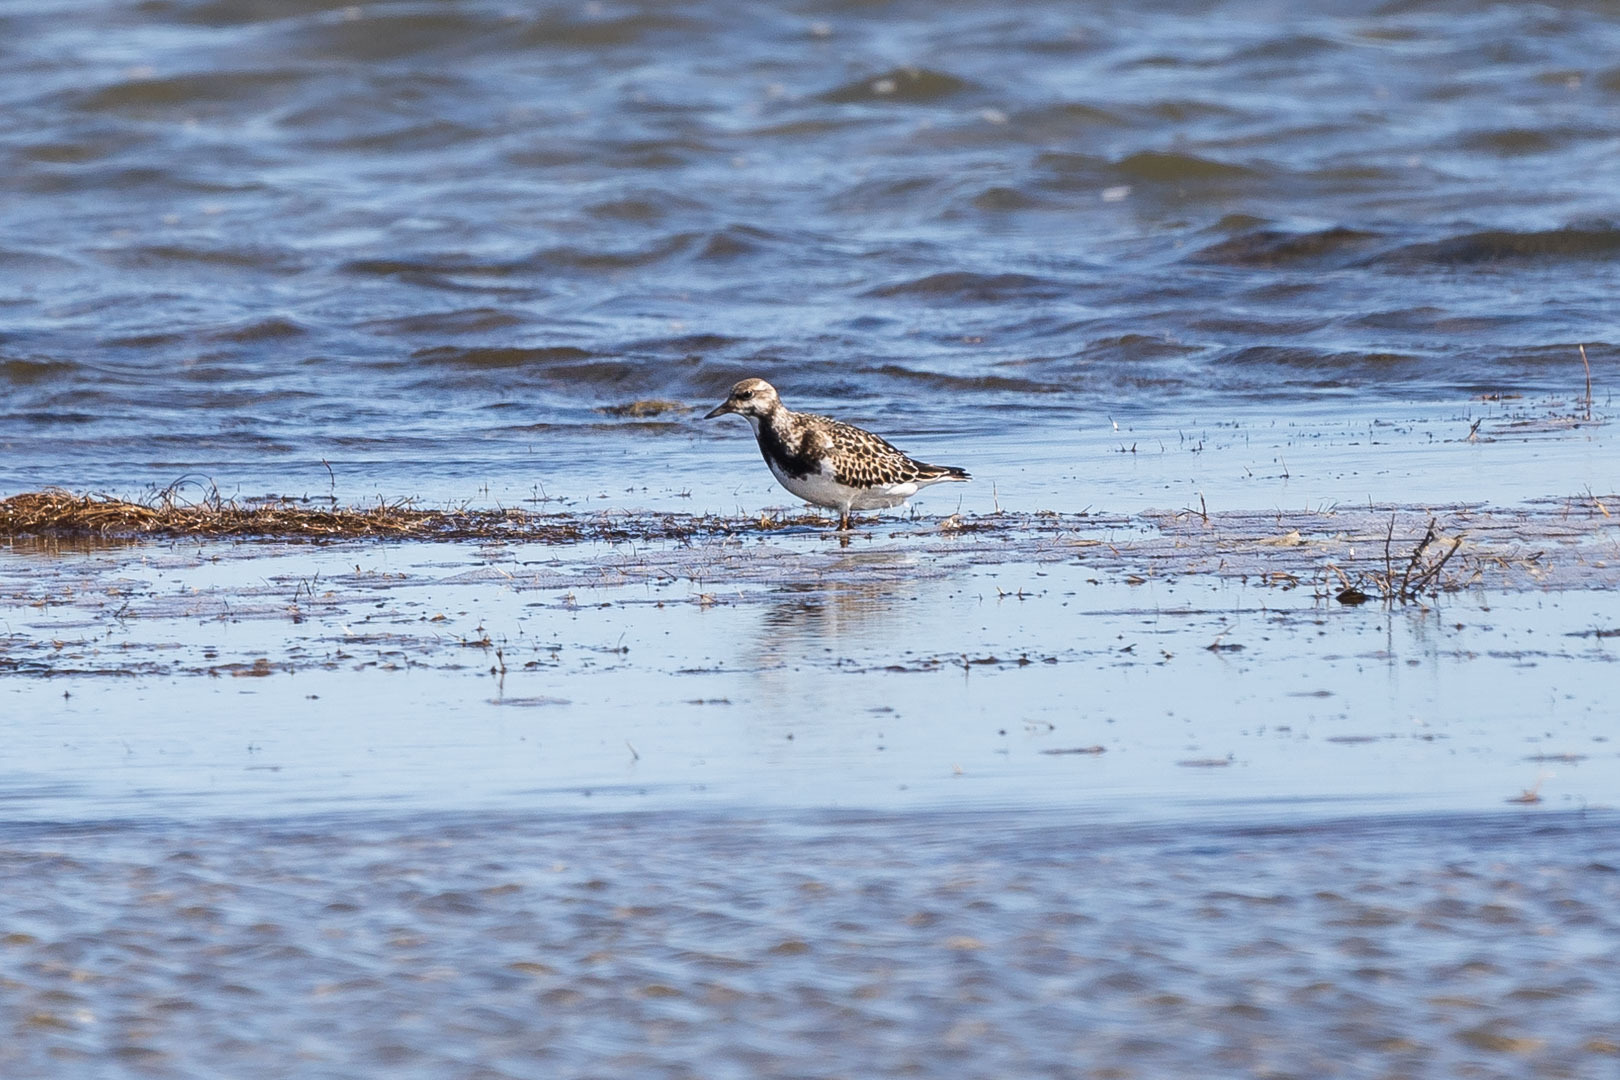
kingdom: Animalia
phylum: Chordata
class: Aves
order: Charadriiformes
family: Scolopacidae
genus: Arenaria
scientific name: Arenaria interpres
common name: Ruddy turnstone
